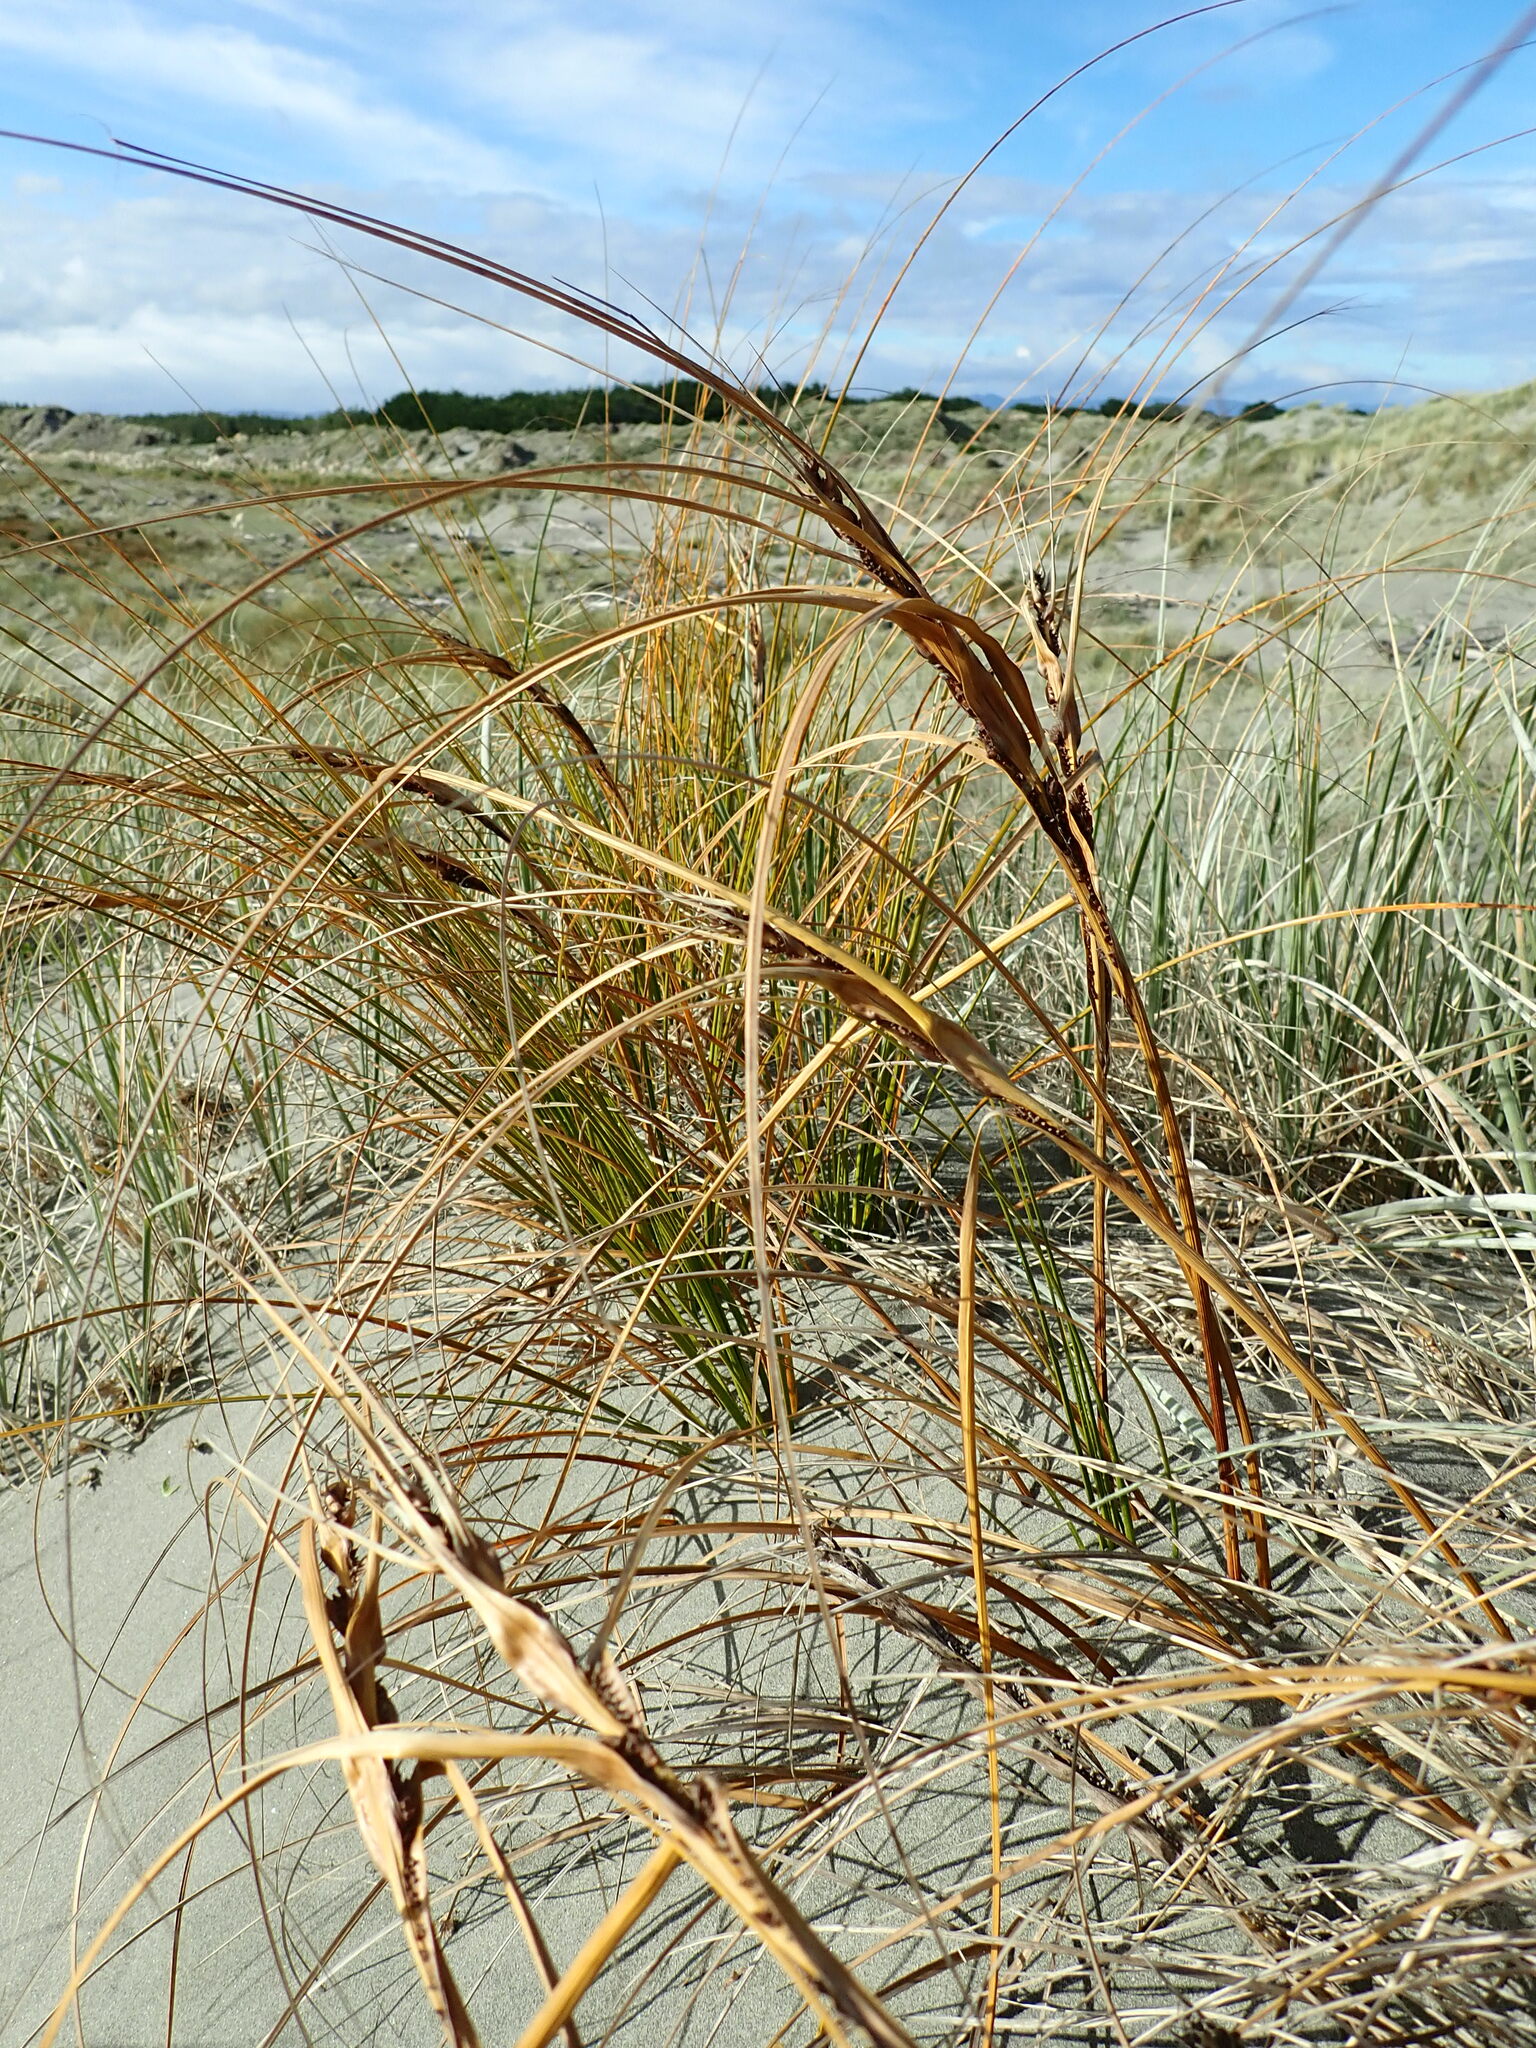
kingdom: Plantae
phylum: Tracheophyta
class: Liliopsida
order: Poales
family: Cyperaceae
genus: Ficinia
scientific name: Ficinia spiralis
